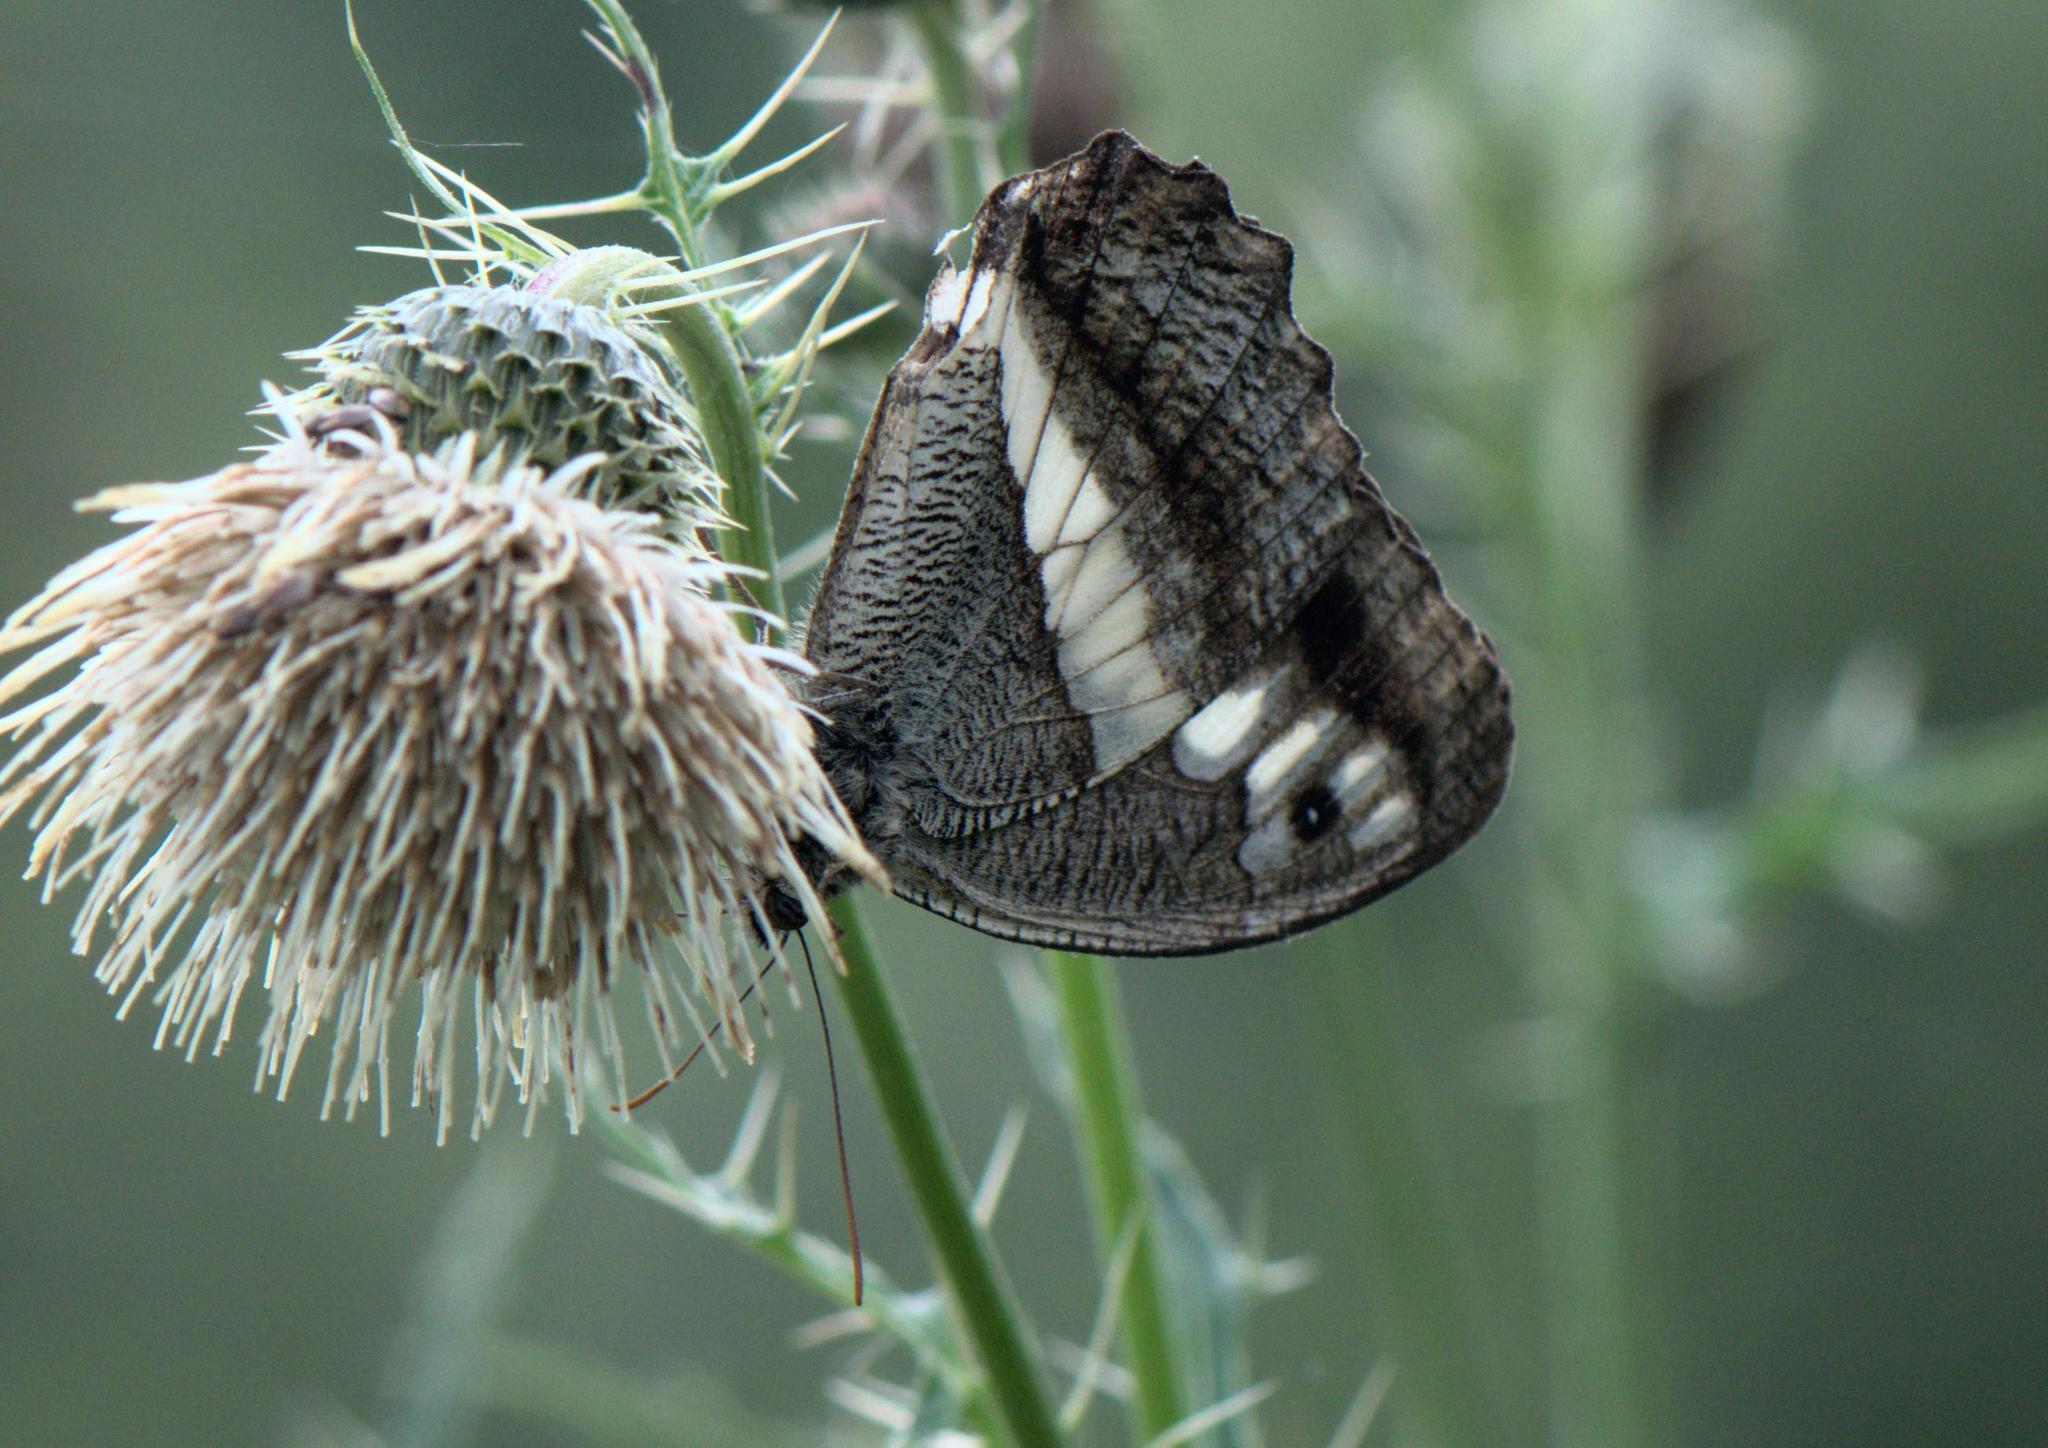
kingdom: Animalia
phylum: Arthropoda
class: Insecta
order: Lepidoptera
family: Nymphalidae
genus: Satyrus
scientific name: Satyrus
